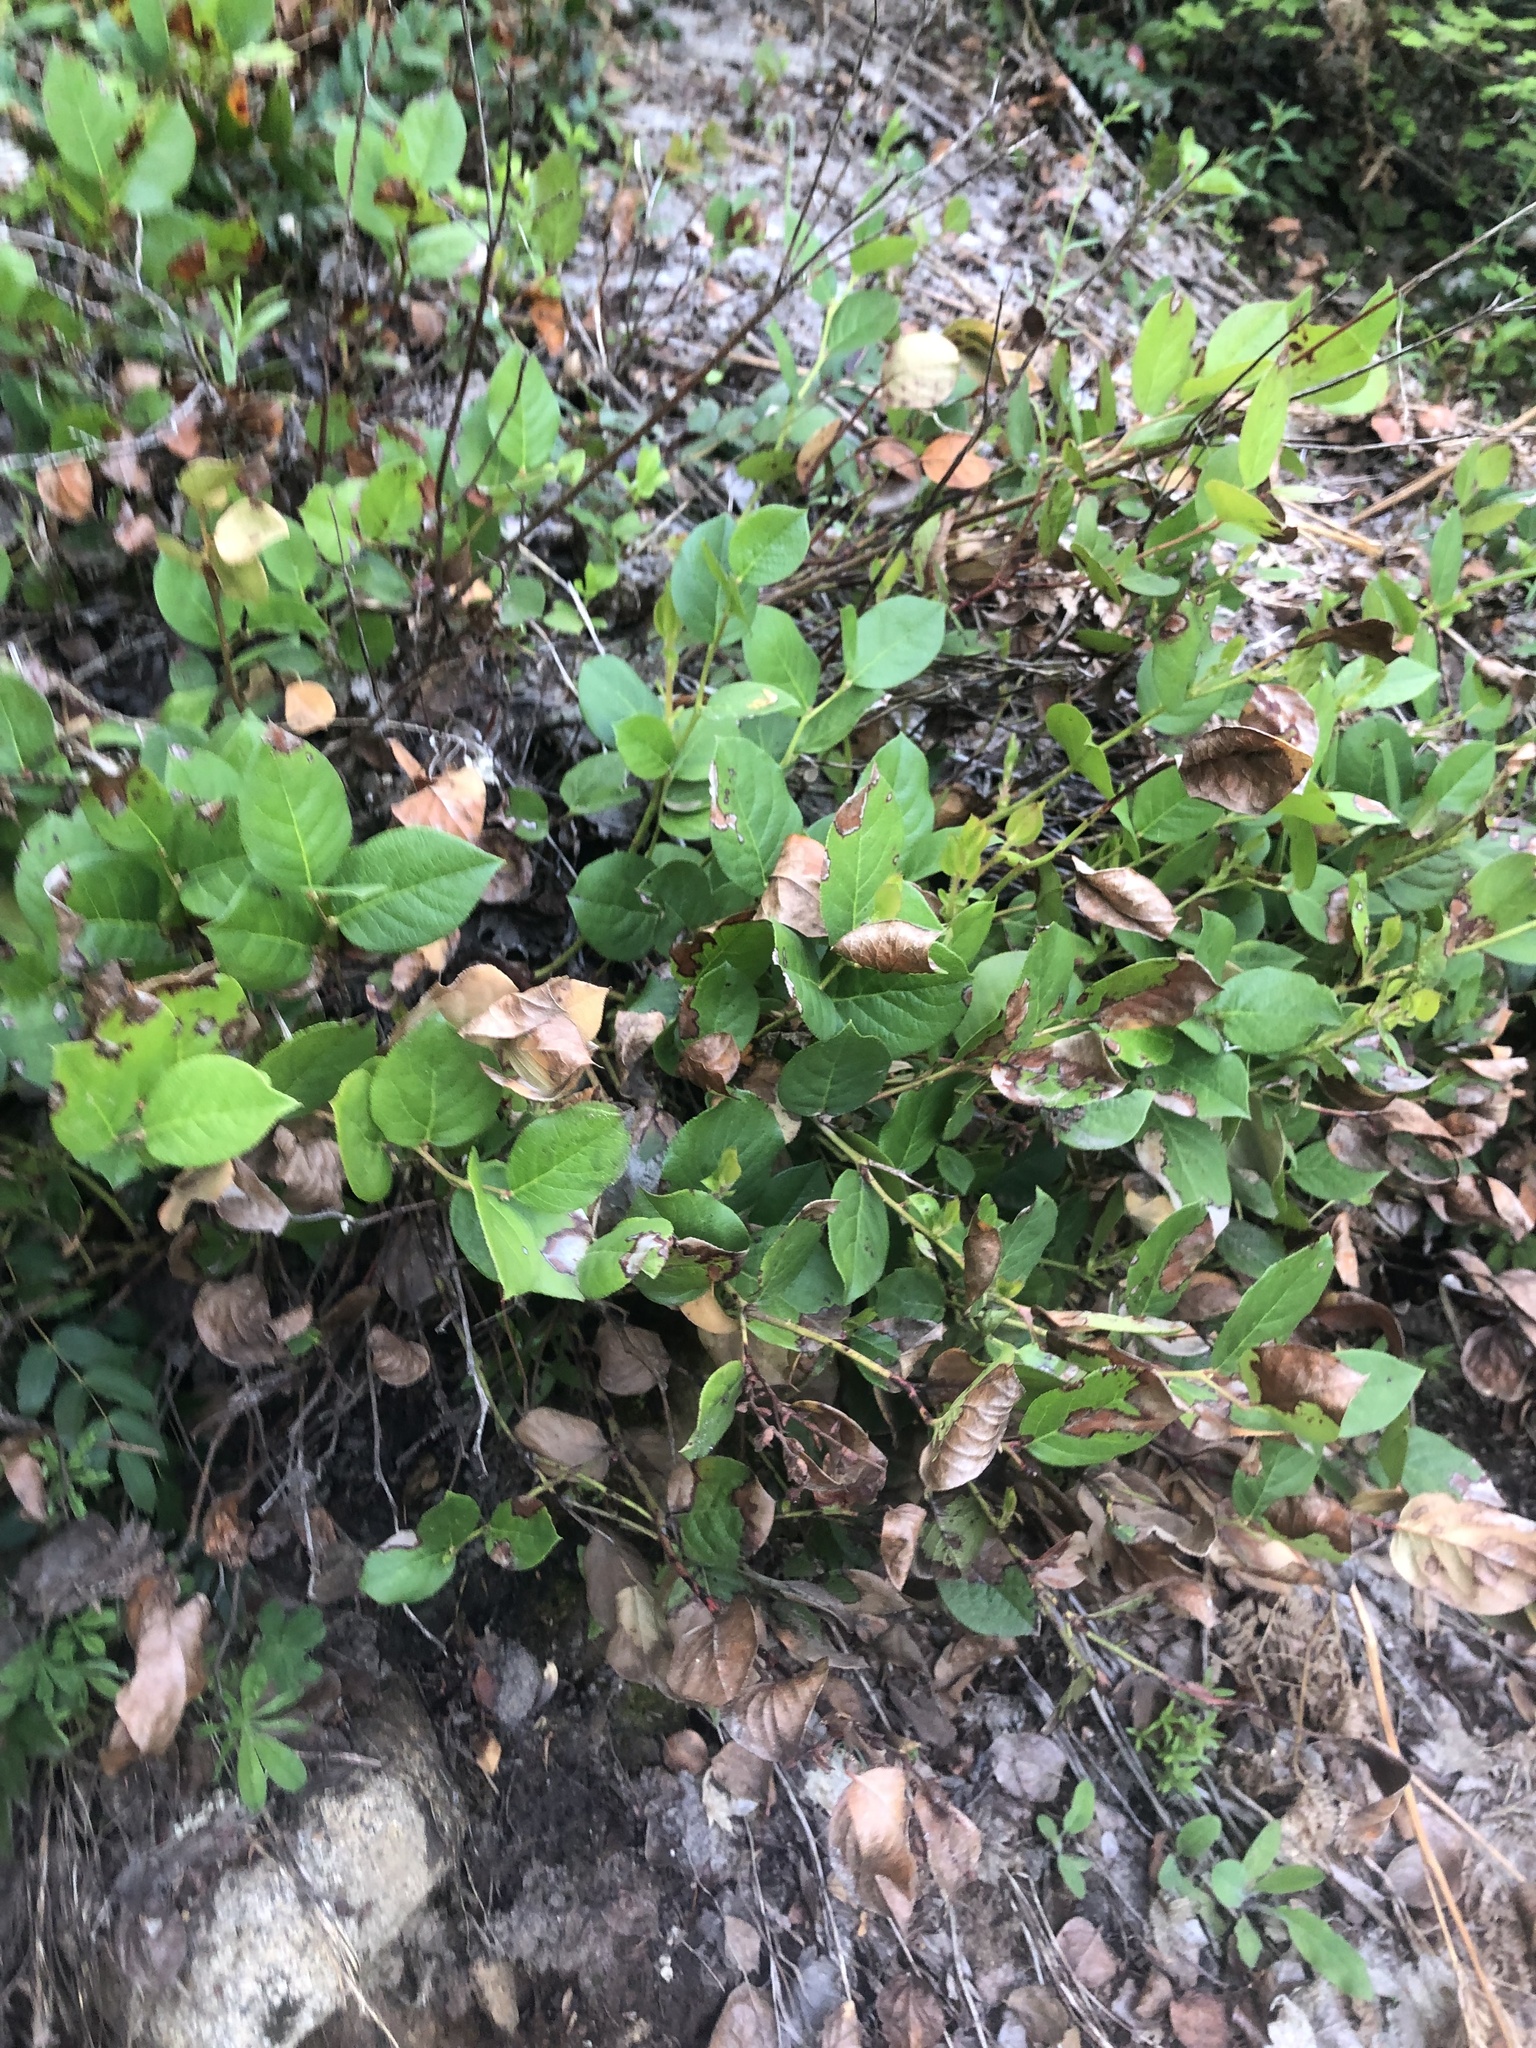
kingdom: Plantae
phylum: Tracheophyta
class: Magnoliopsida
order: Ericales
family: Ericaceae
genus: Gaultheria
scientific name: Gaultheria shallon
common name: Shallon
